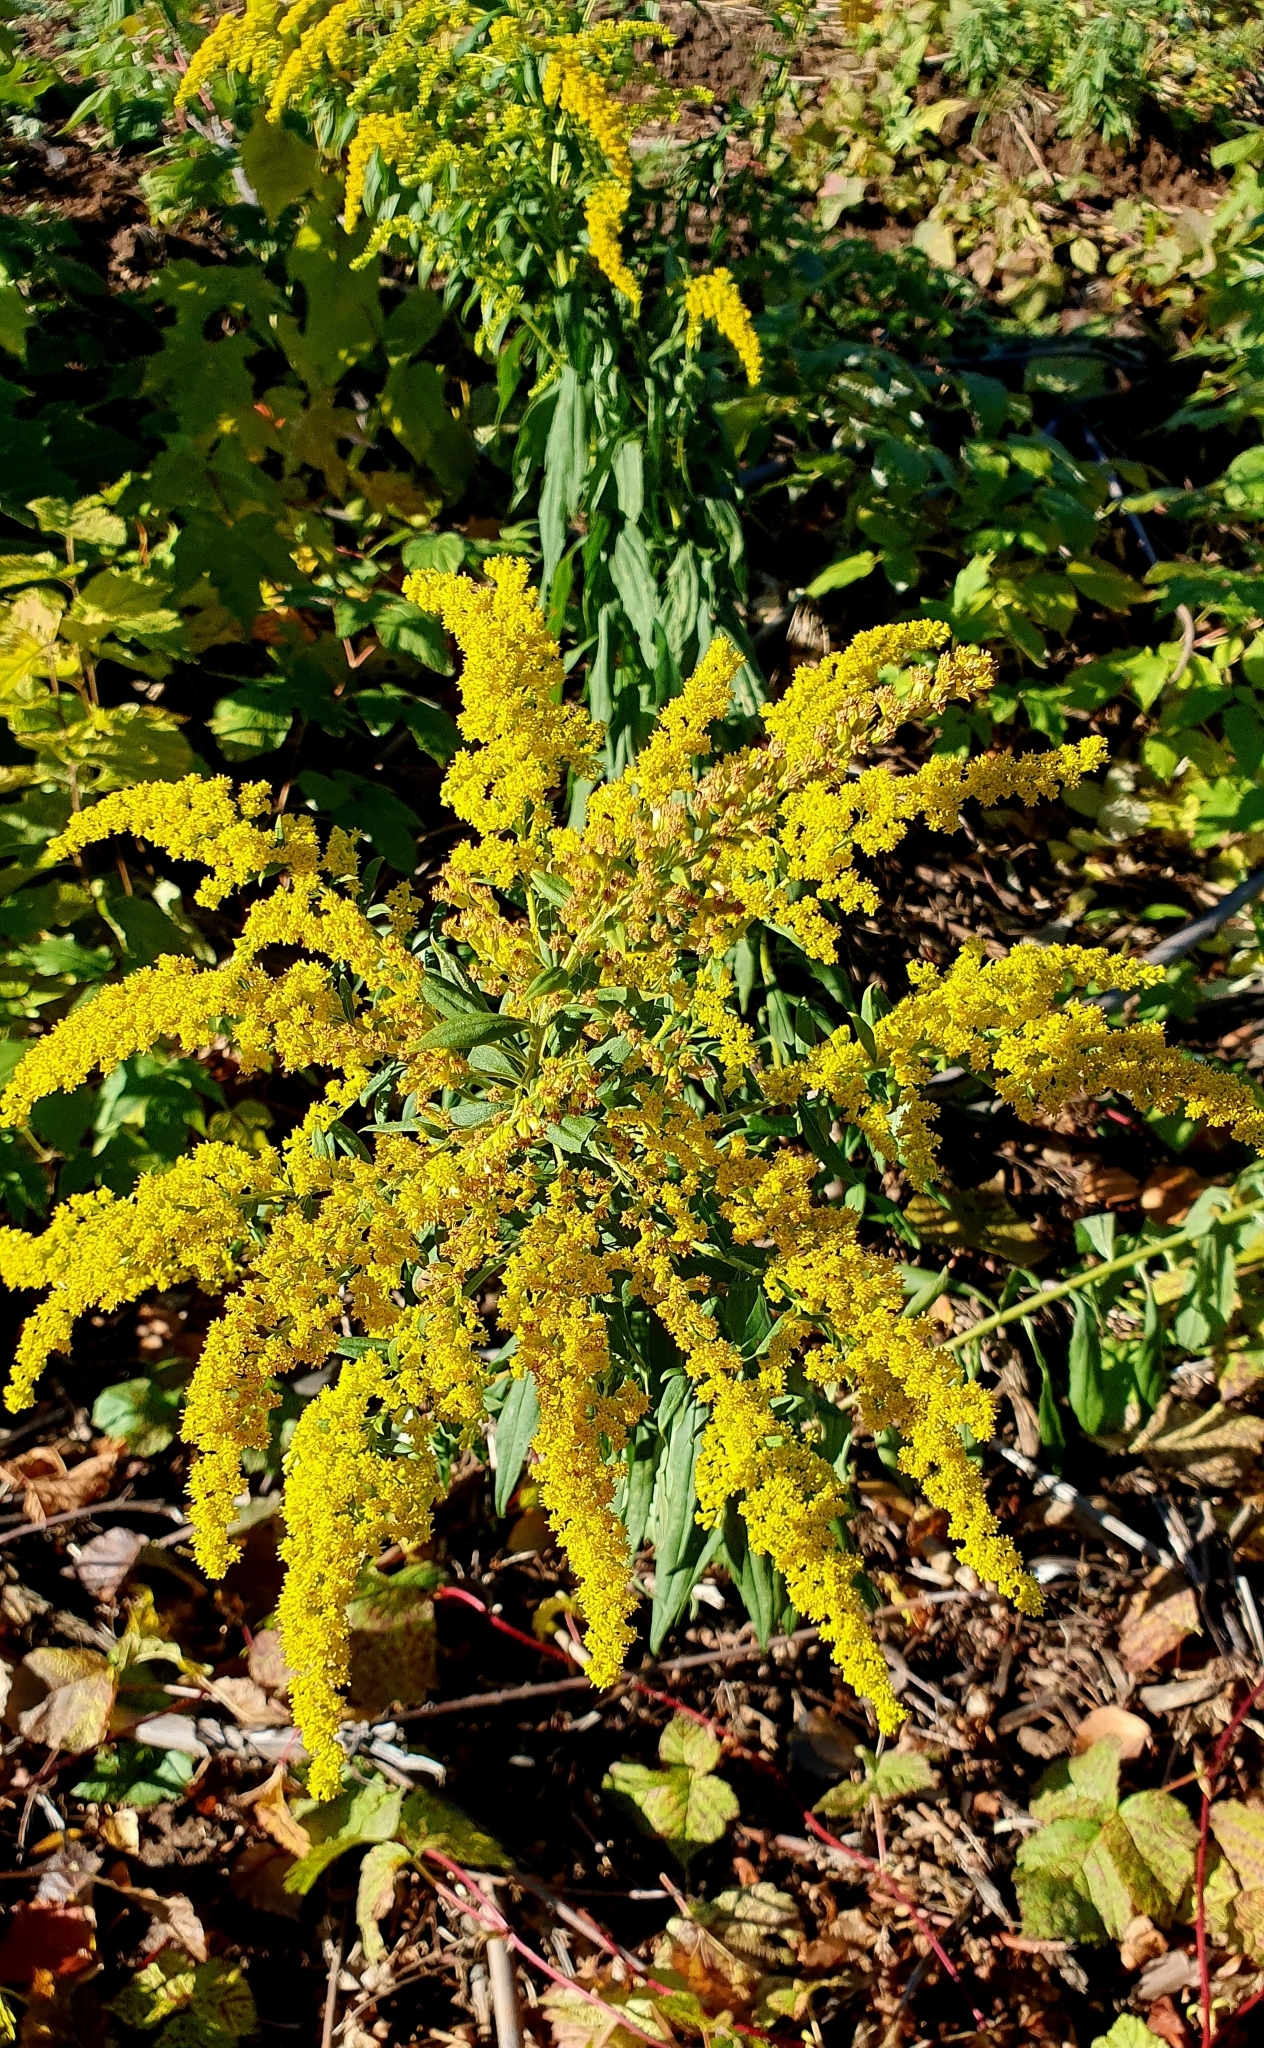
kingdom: Plantae
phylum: Tracheophyta
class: Magnoliopsida
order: Asterales
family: Asteraceae
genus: Solidago
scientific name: Solidago canadensis
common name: Canada goldenrod
